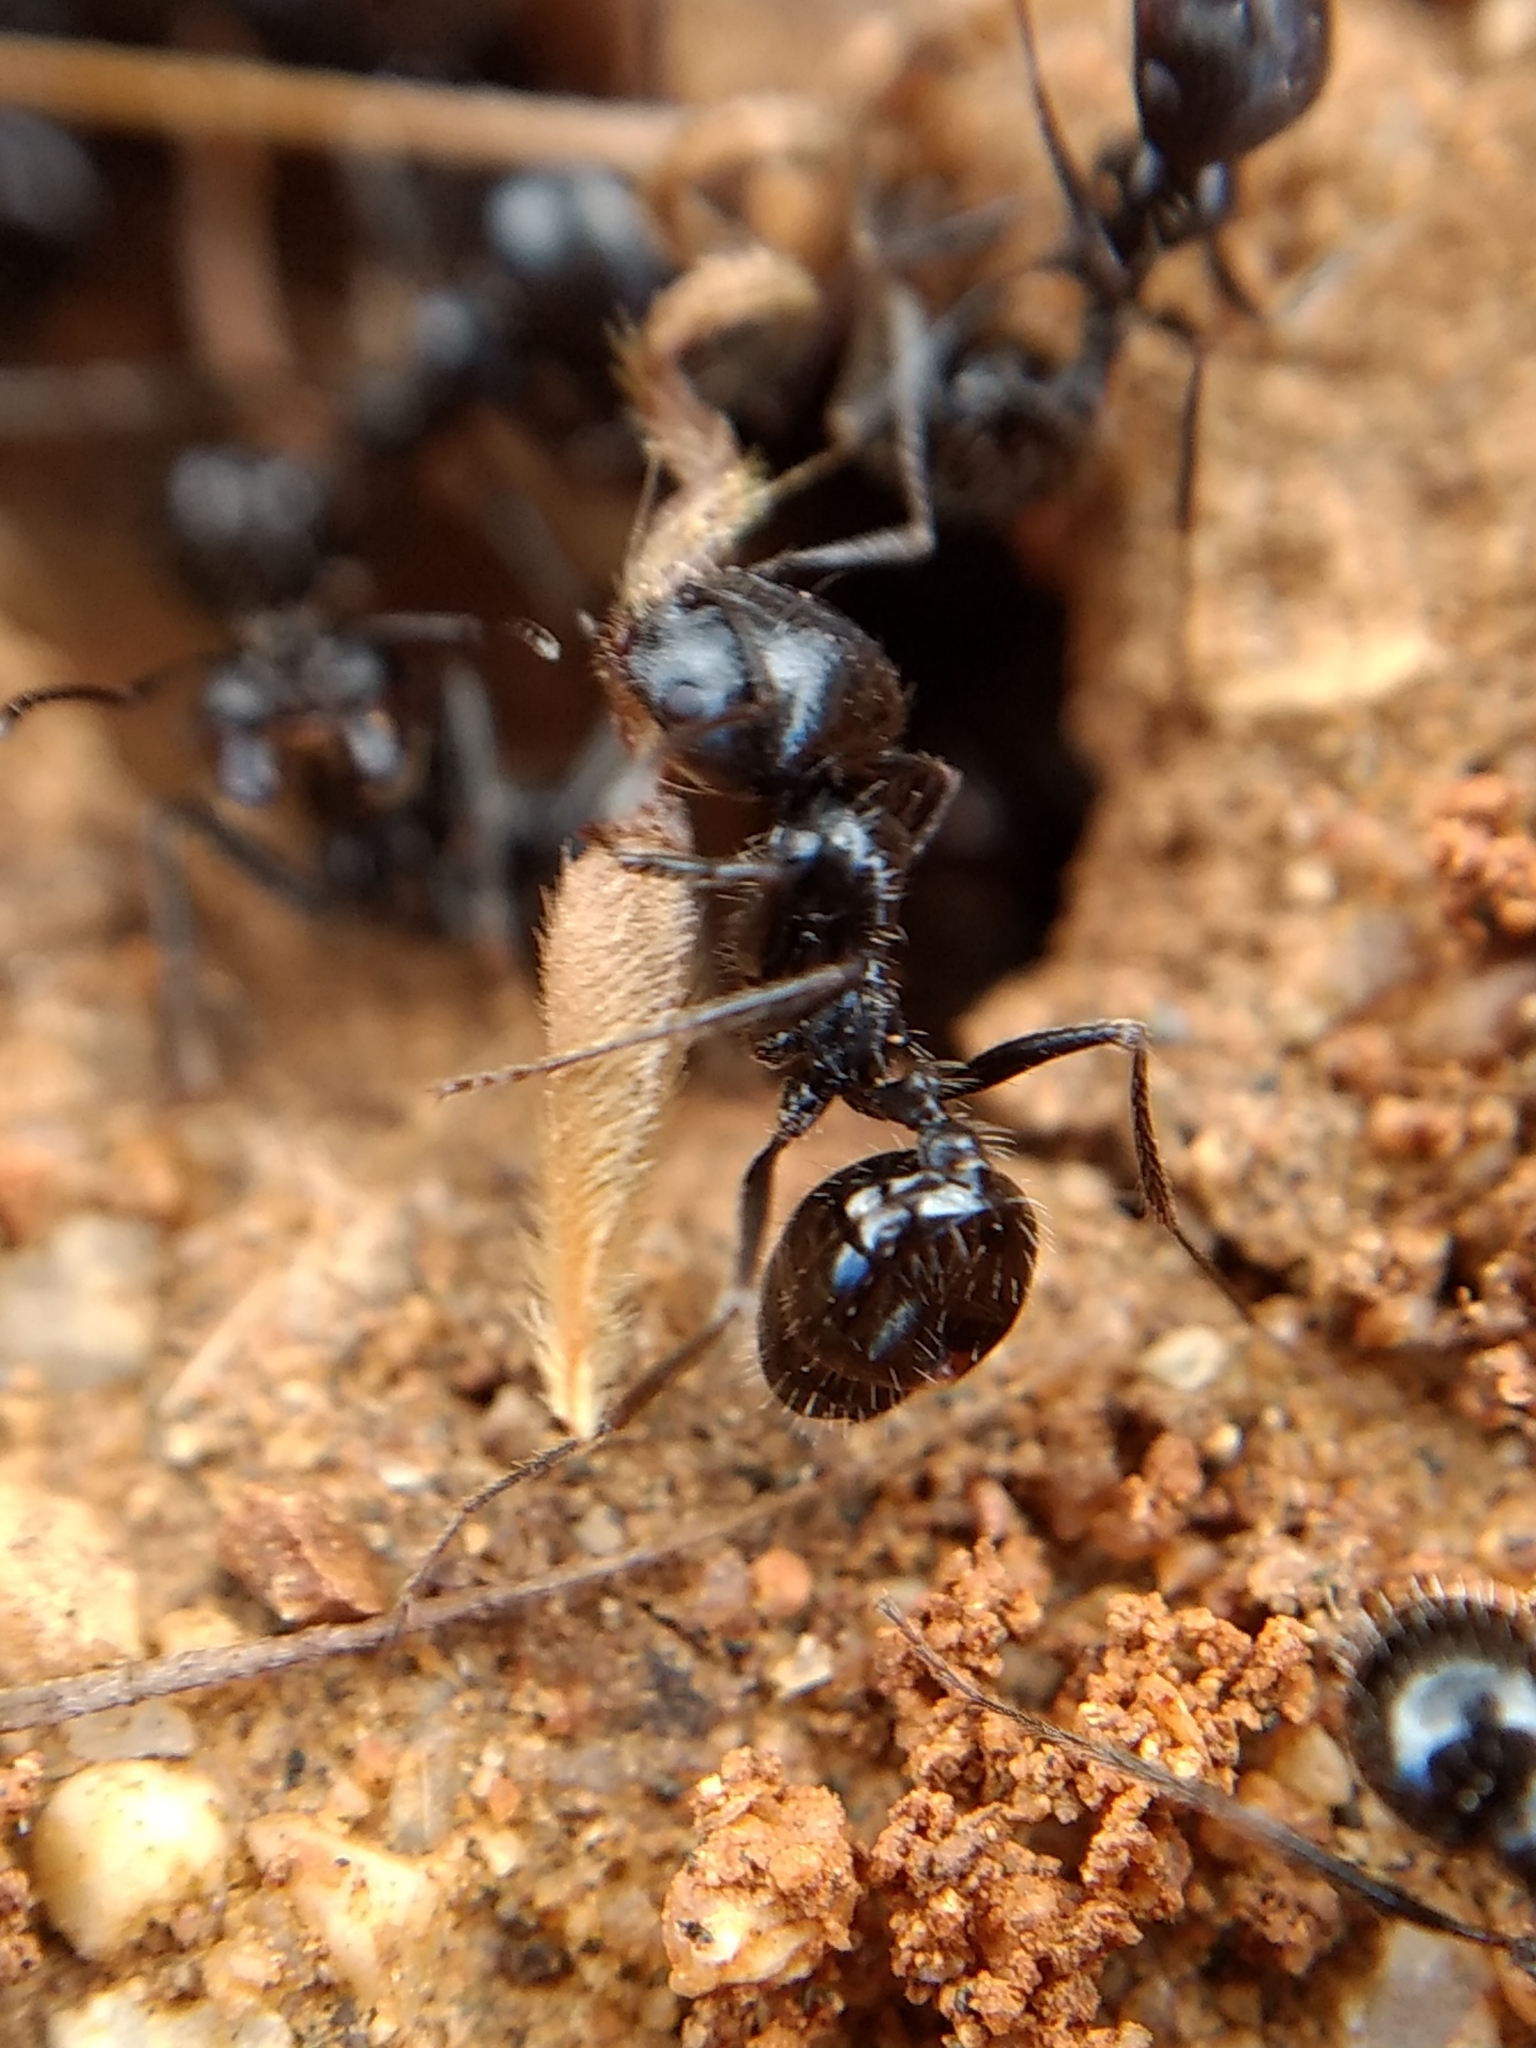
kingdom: Animalia
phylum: Arthropoda
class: Insecta
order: Hymenoptera
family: Formicidae
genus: Messor
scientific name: Messor pergandei
